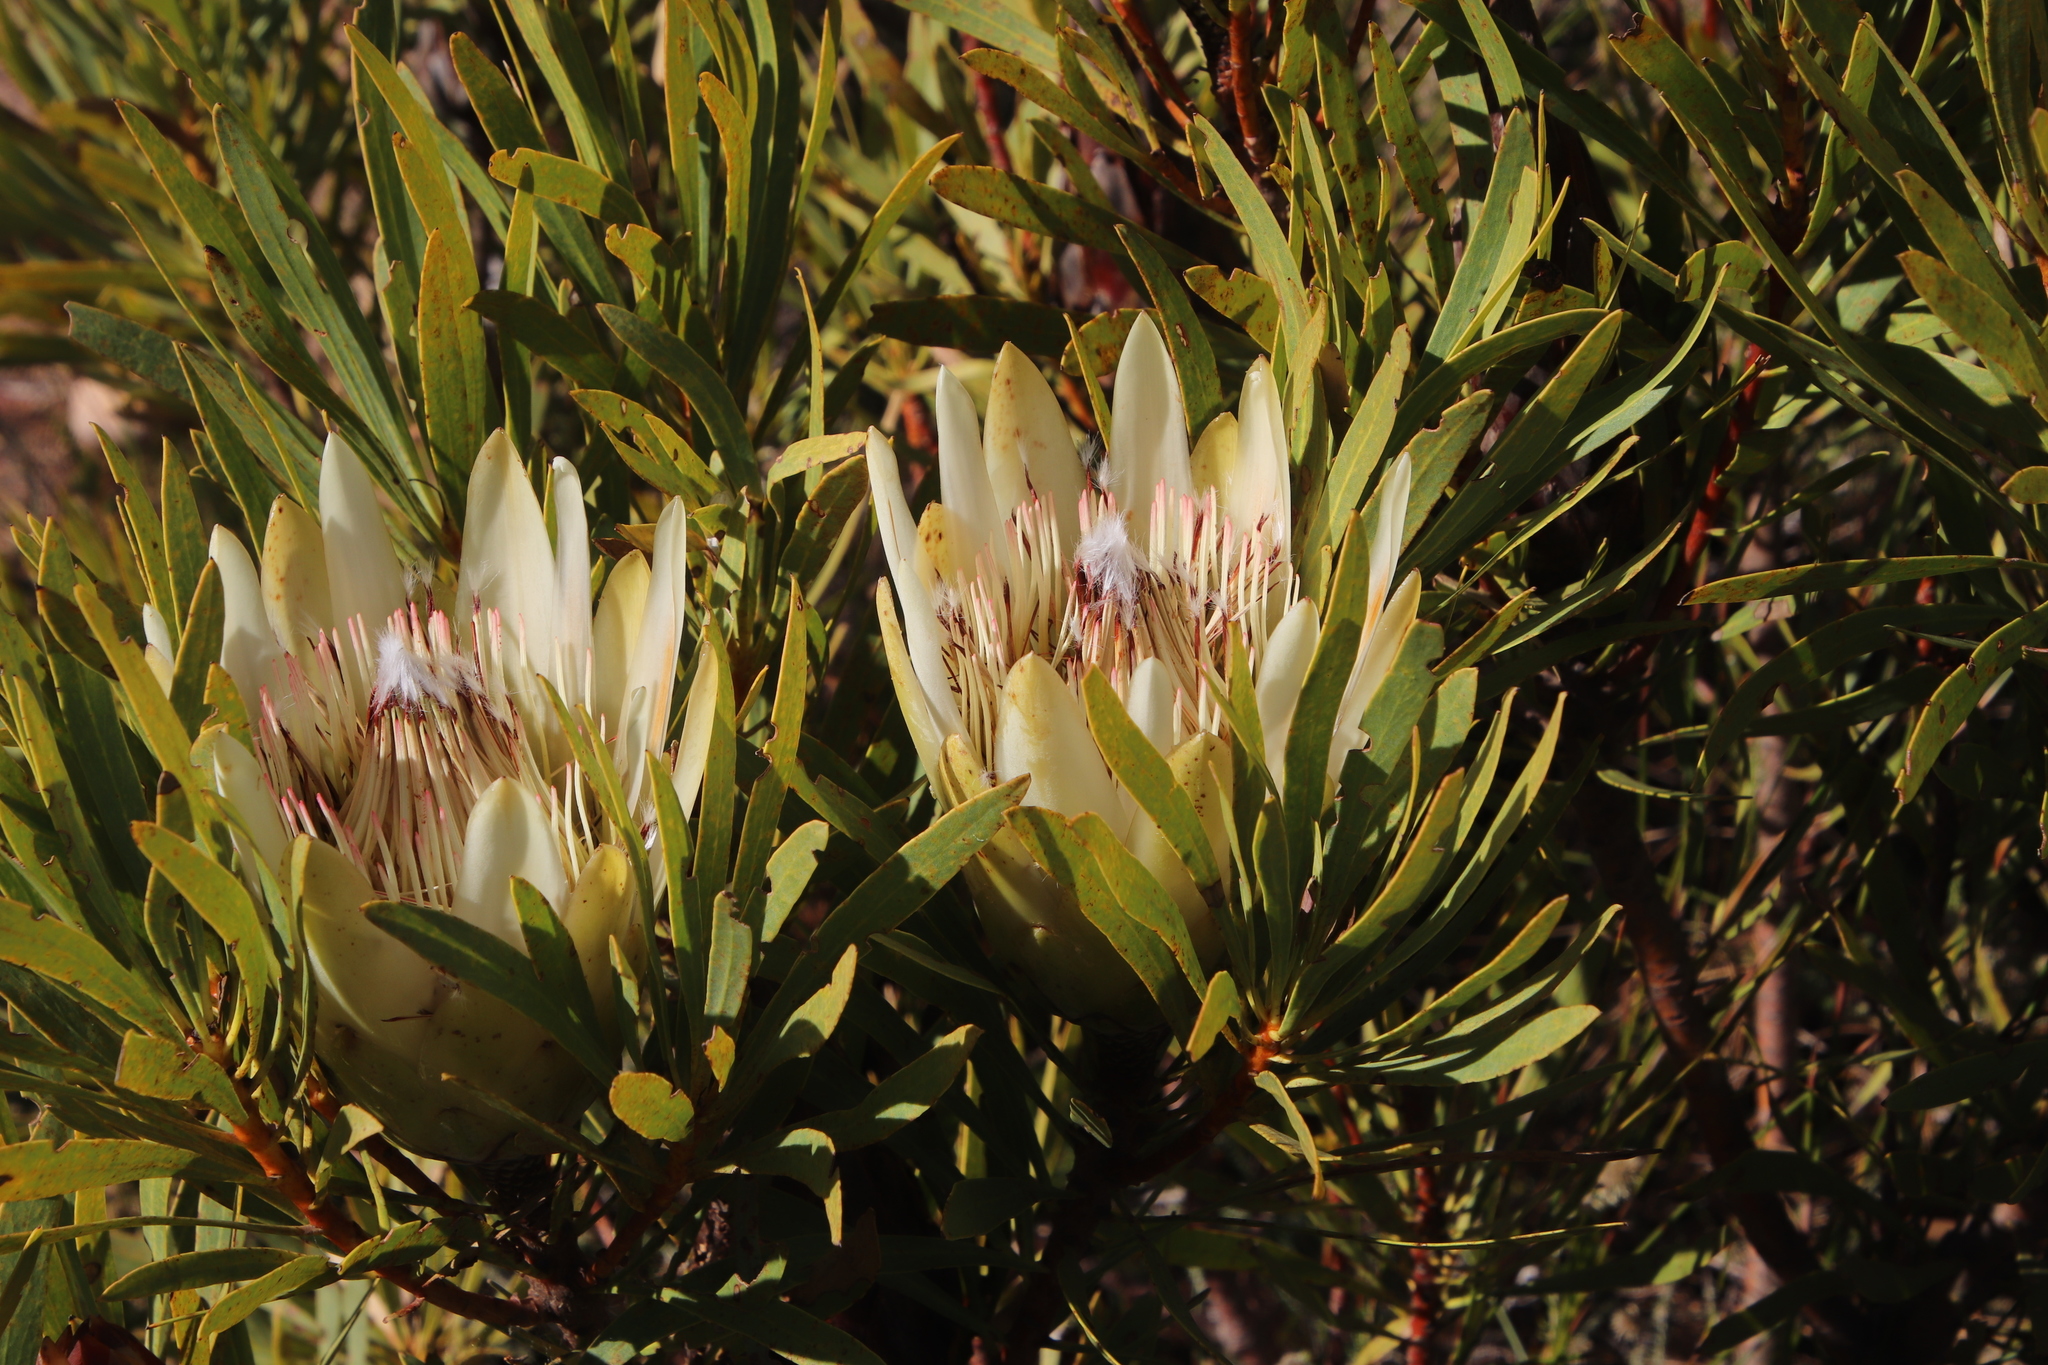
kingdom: Plantae
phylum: Tracheophyta
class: Magnoliopsida
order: Proteales
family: Proteaceae
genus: Protea
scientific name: Protea repens
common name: Sugarbush
